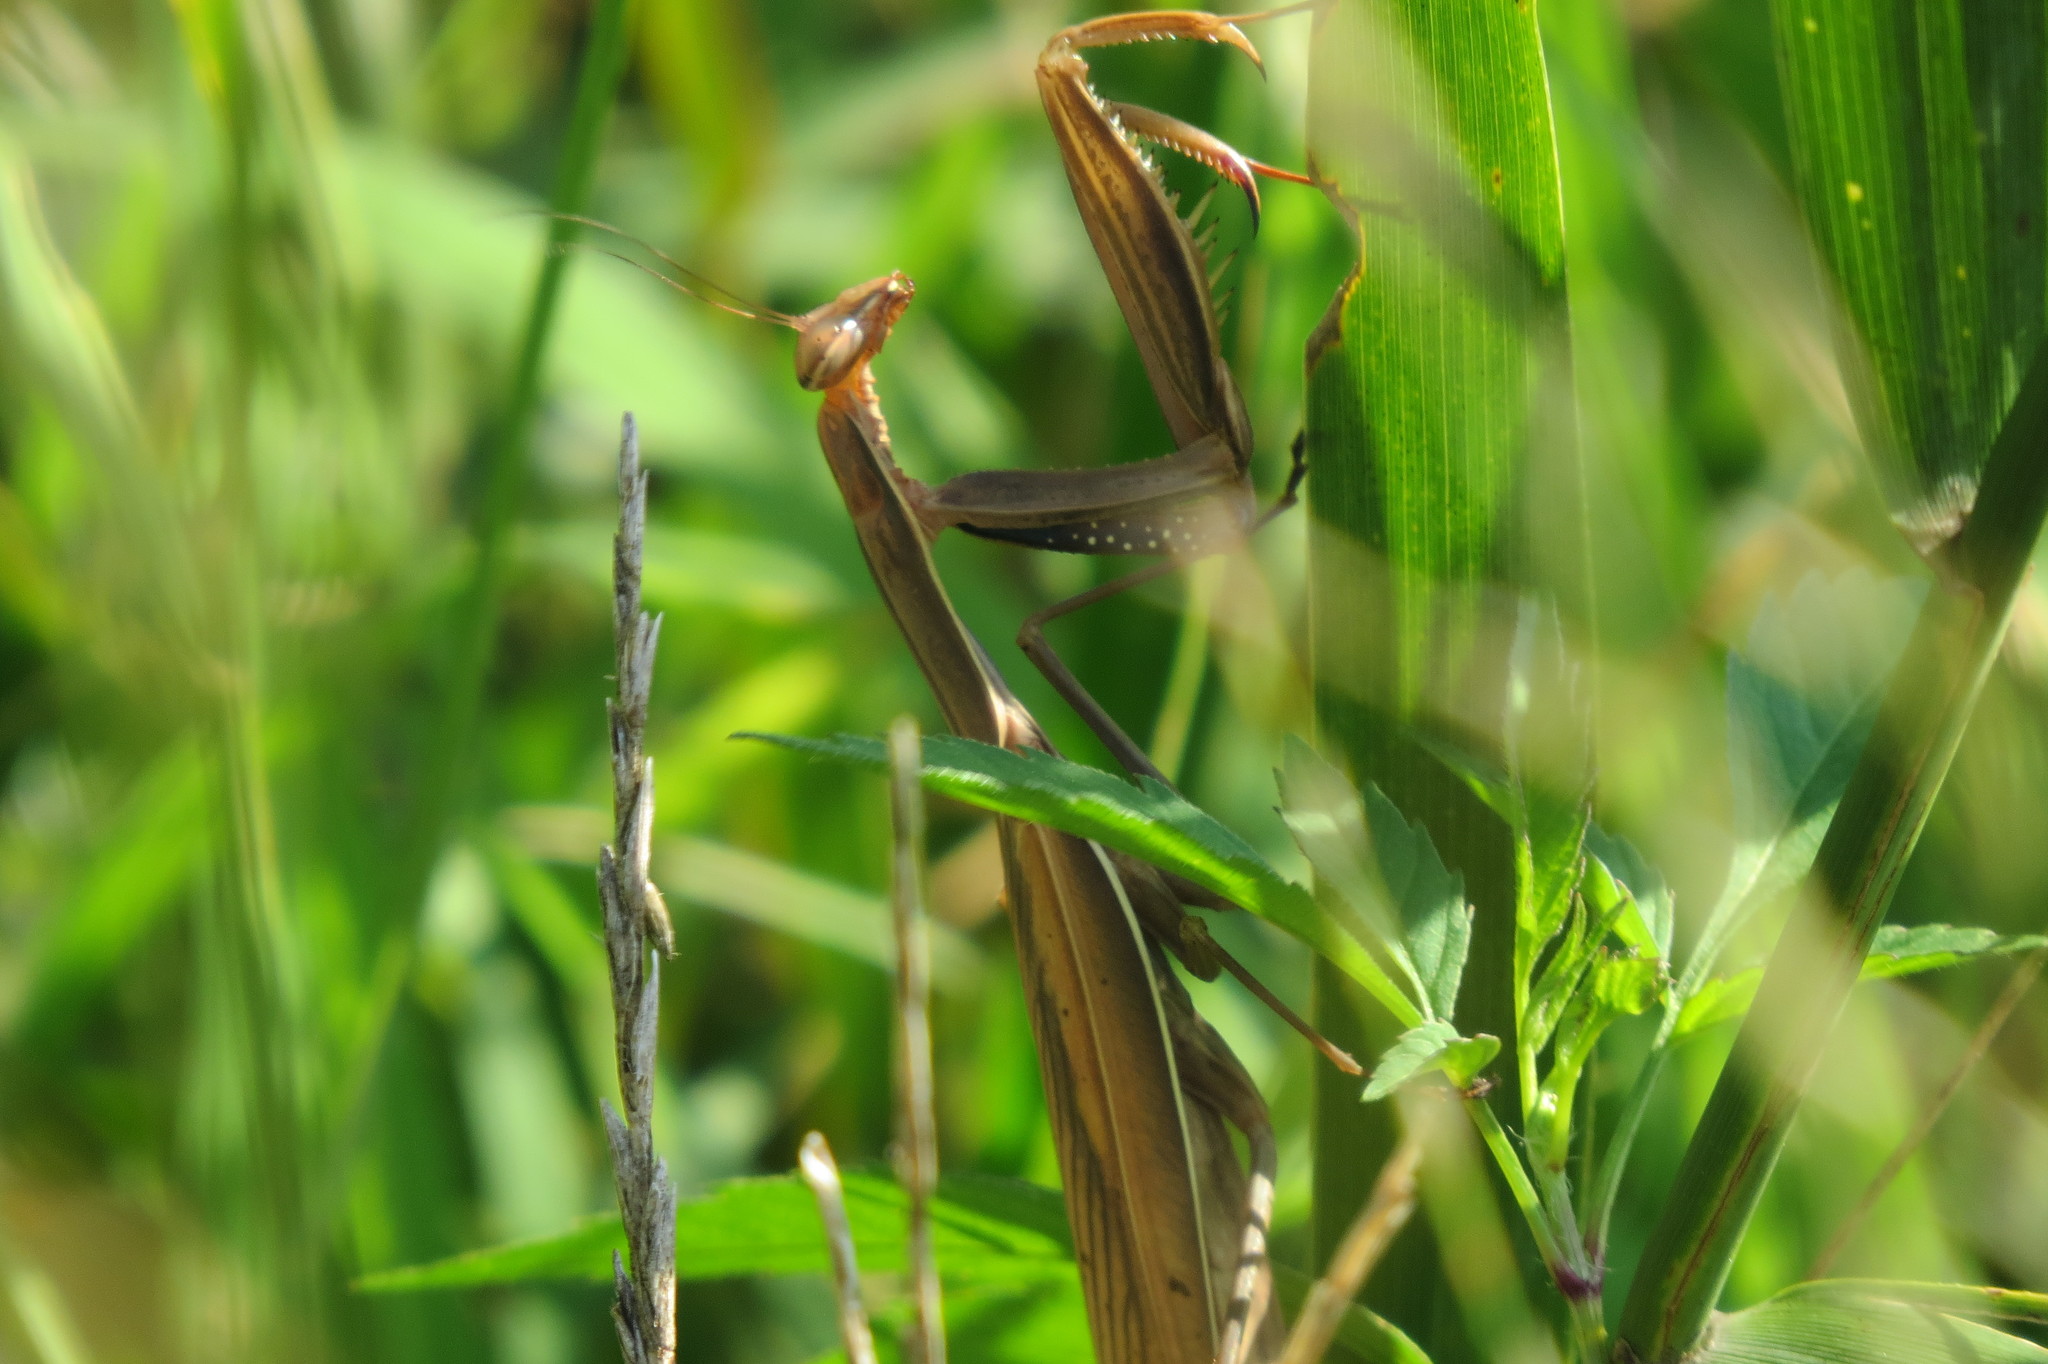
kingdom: Animalia
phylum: Arthropoda
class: Insecta
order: Mantodea
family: Mantidae
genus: Mantis
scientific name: Mantis religiosa
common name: Praying mantis
